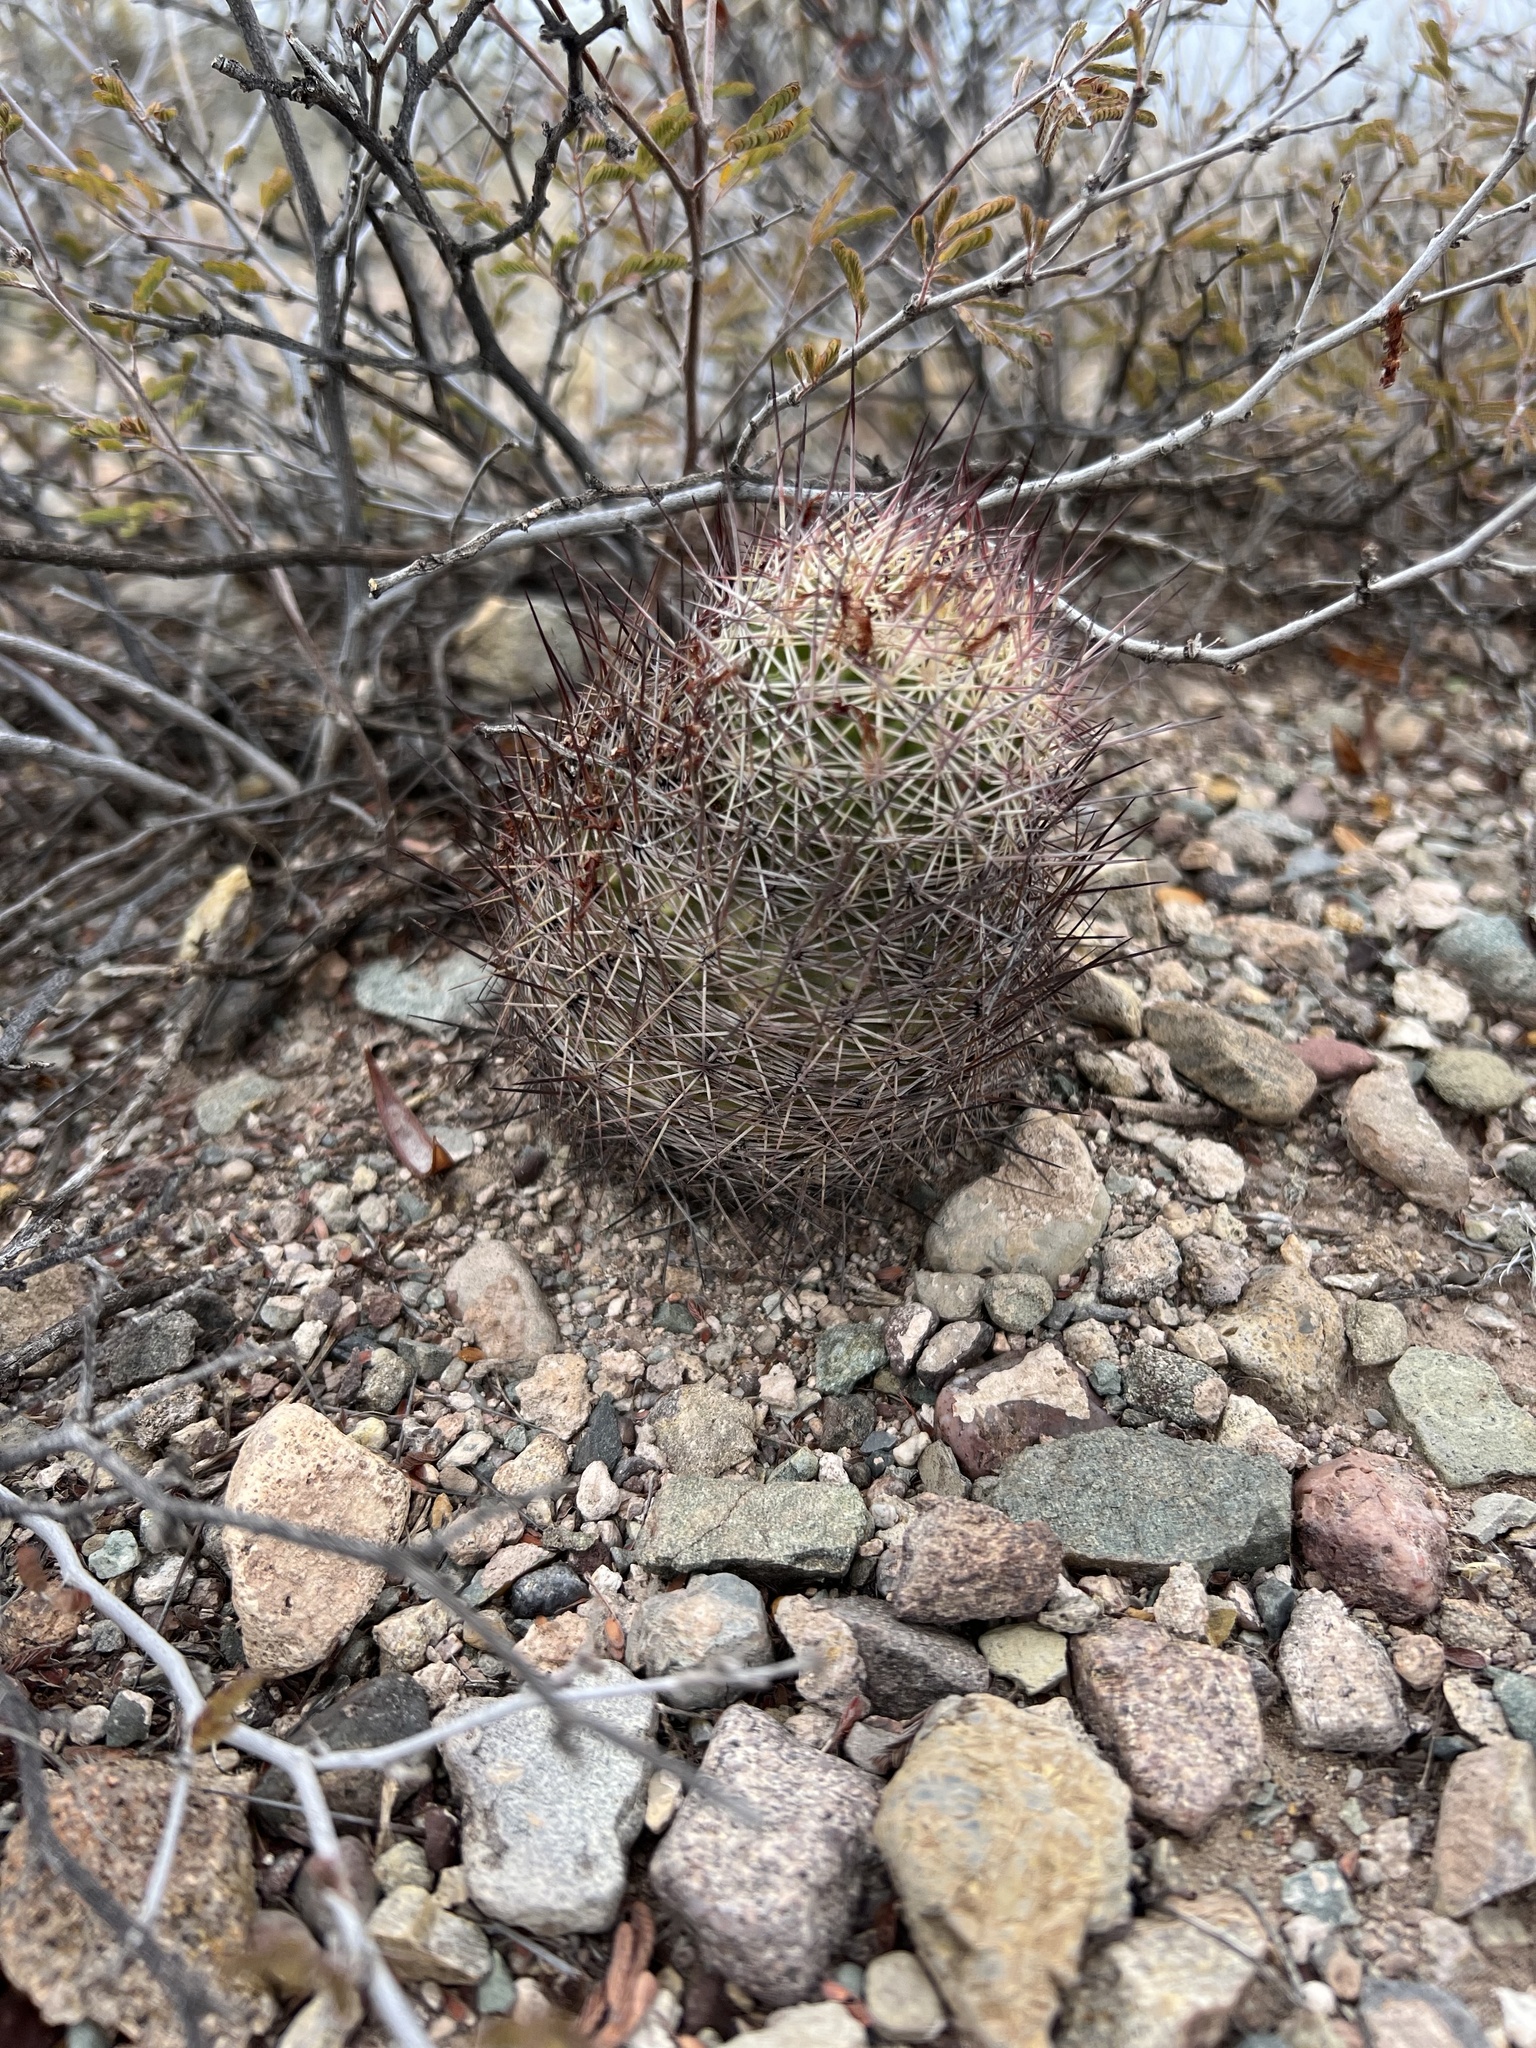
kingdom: Plantae
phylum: Tracheophyta
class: Magnoliopsida
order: Caryophyllales
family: Cactaceae
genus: Sclerocactus
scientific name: Sclerocactus johnsonii
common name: Eight-spine fishhook cactus
